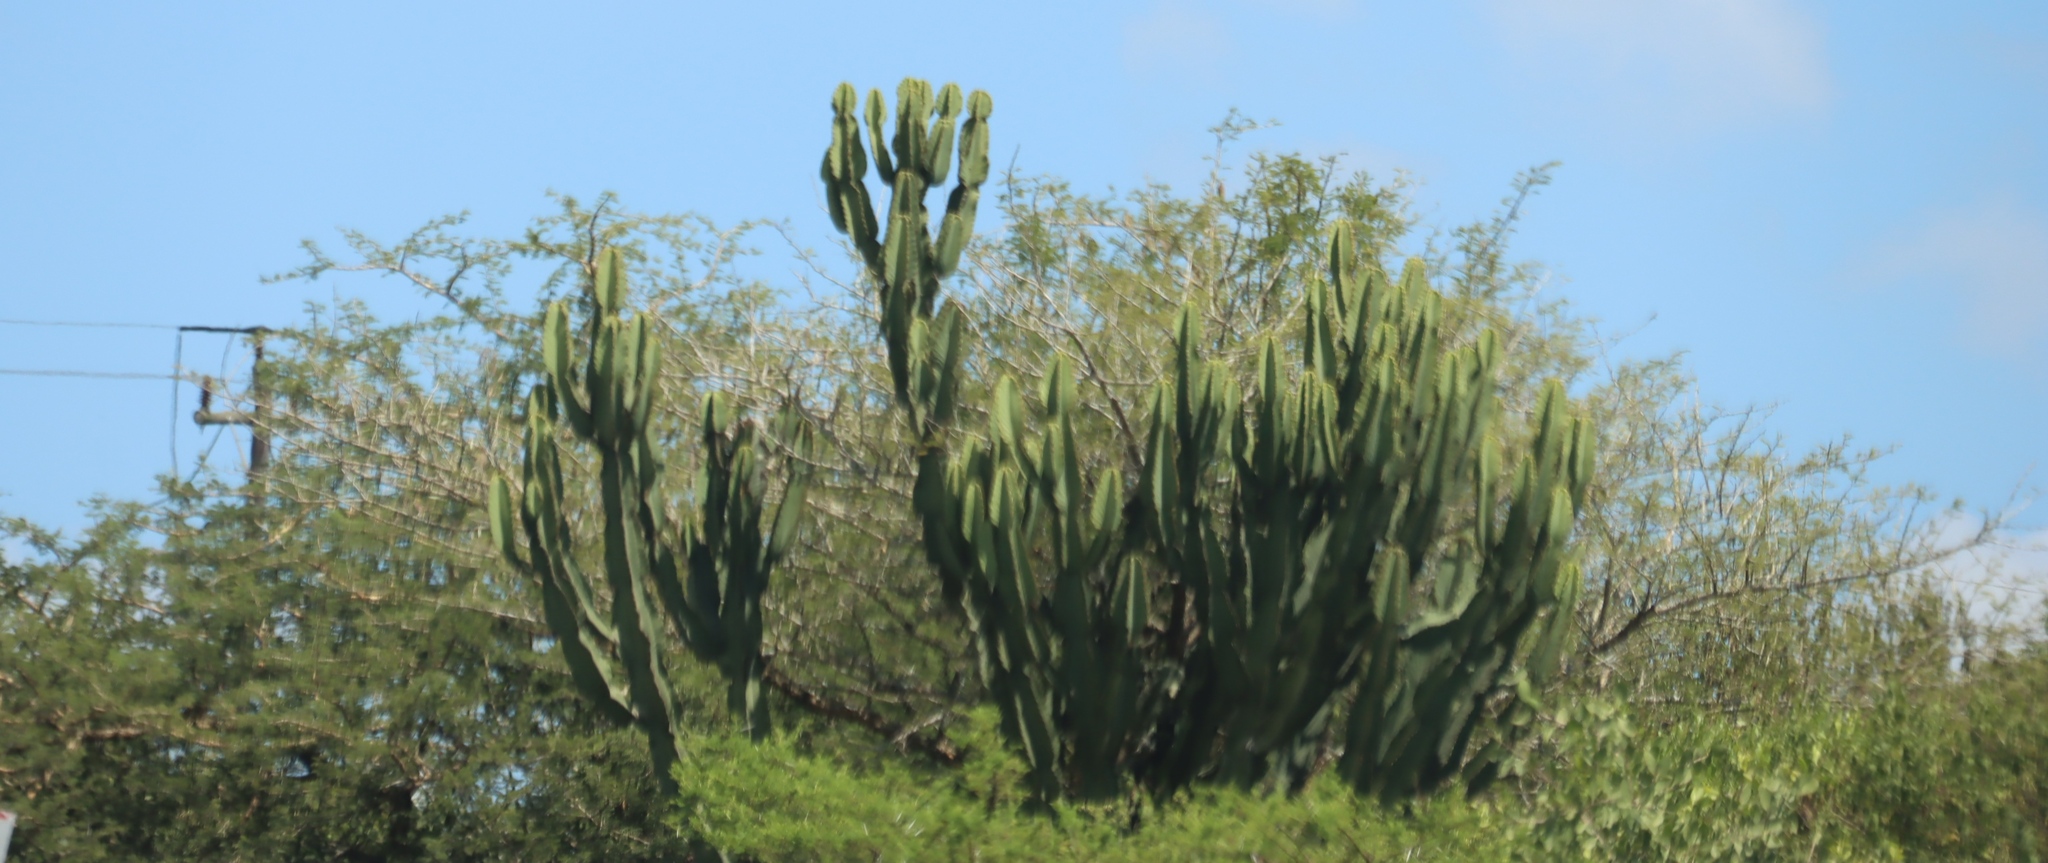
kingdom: Plantae
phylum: Tracheophyta
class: Magnoliopsida
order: Malpighiales
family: Euphorbiaceae
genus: Euphorbia
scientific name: Euphorbia ingens
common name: Cactus spurge
